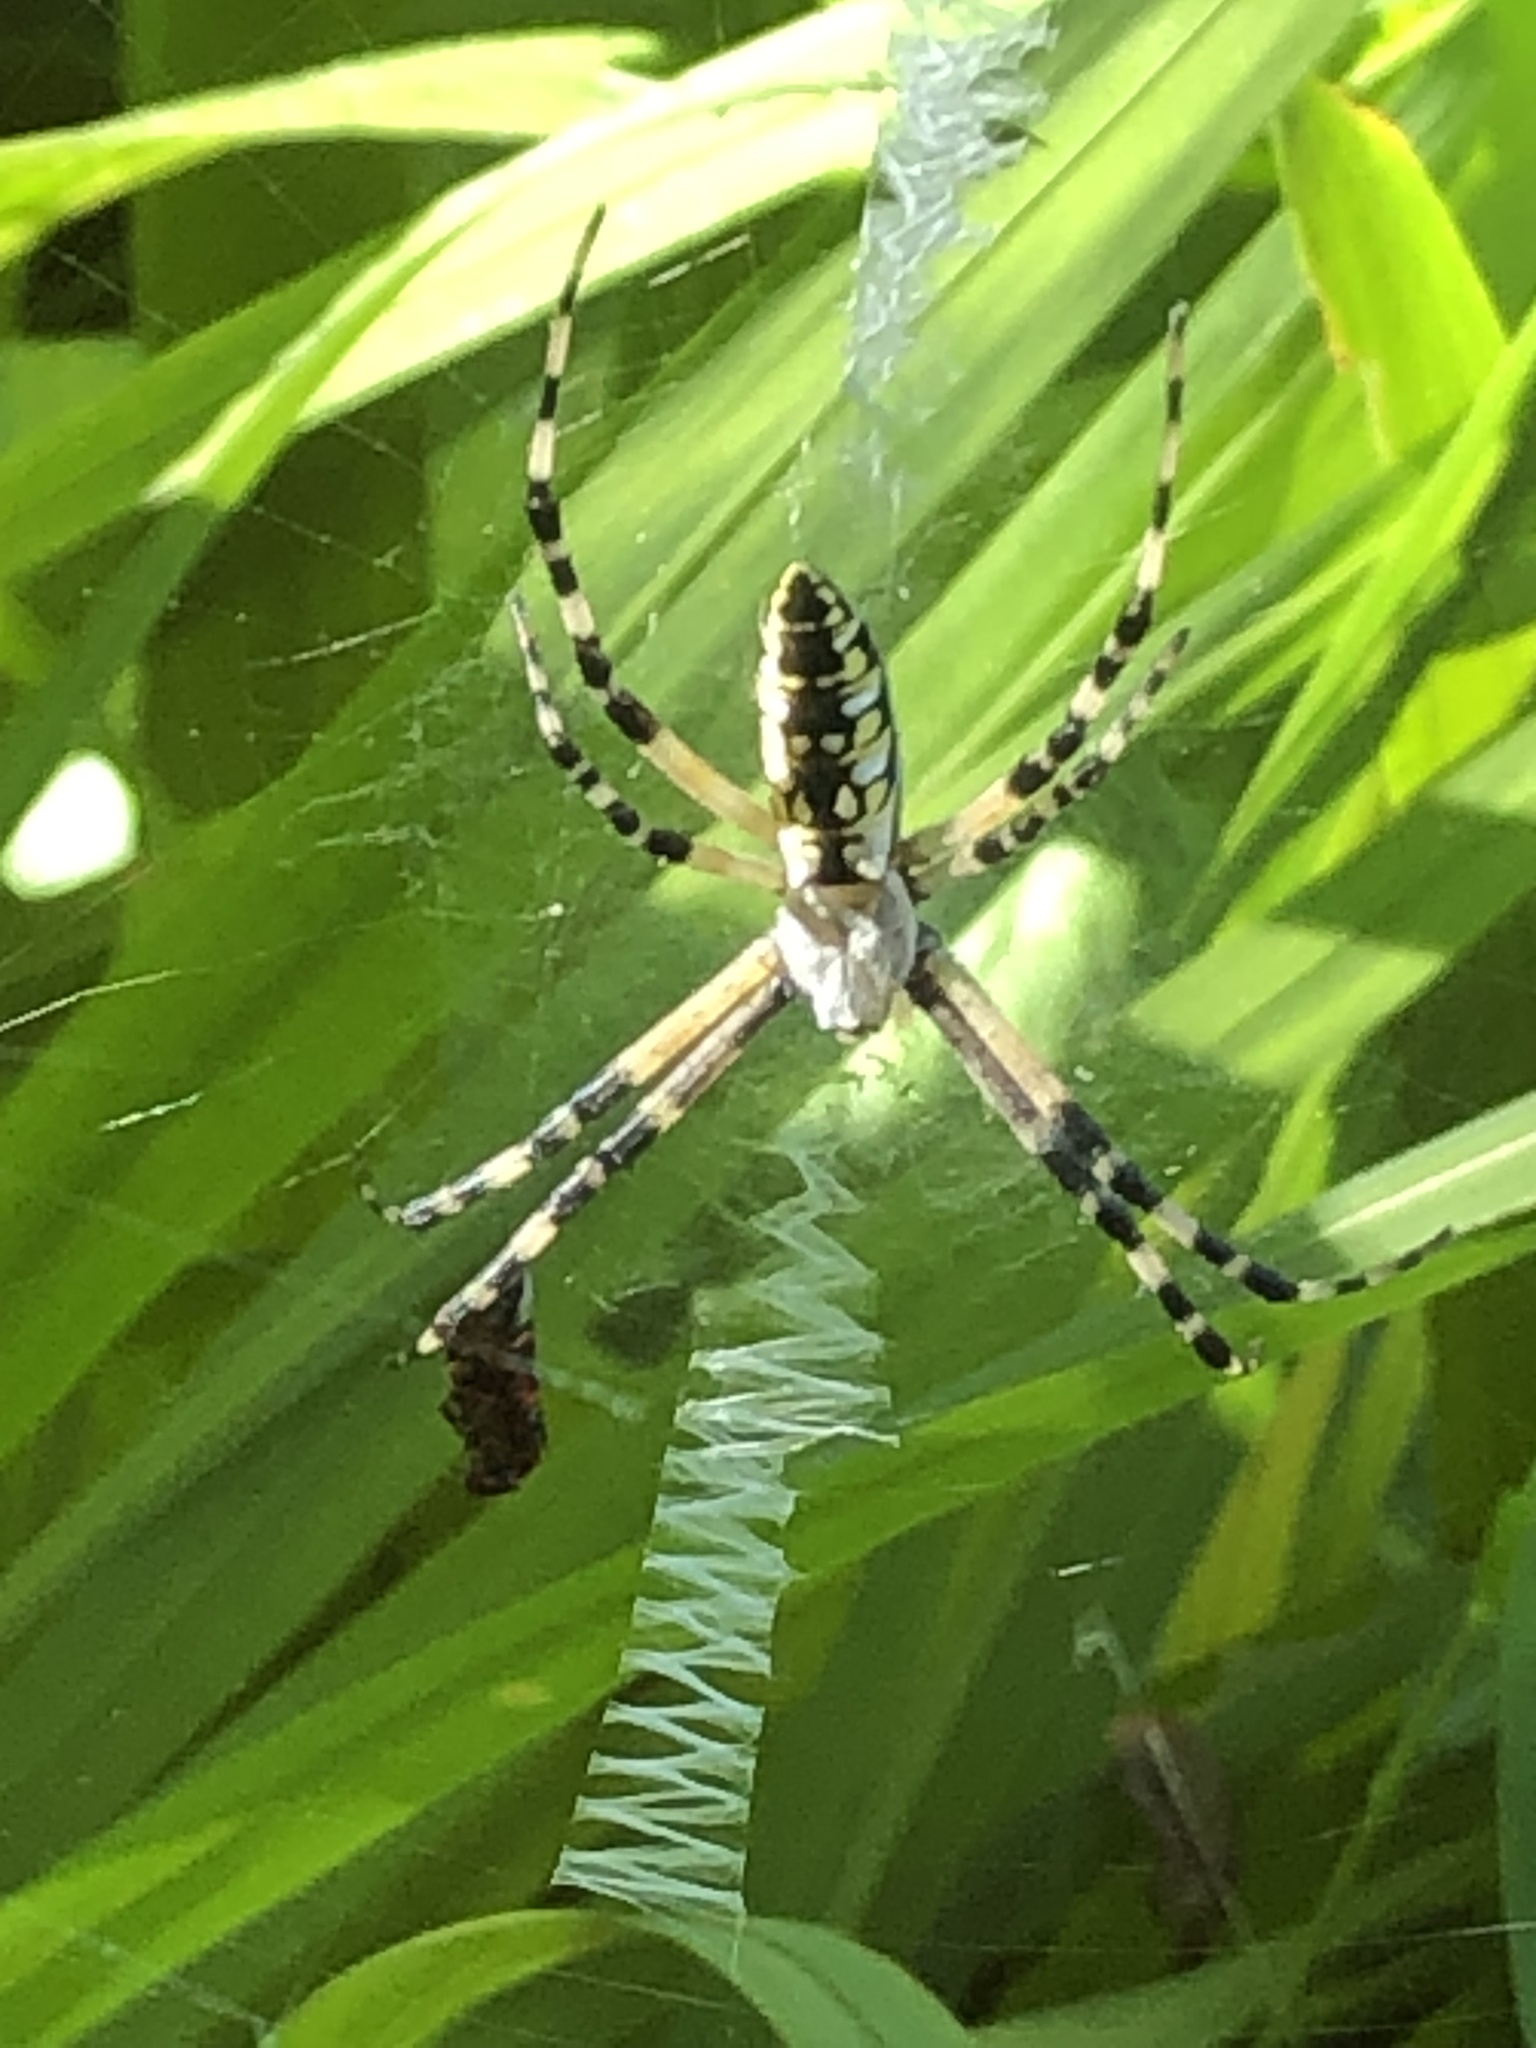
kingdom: Animalia
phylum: Arthropoda
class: Arachnida
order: Araneae
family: Araneidae
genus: Argiope
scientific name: Argiope aurantia
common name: Orb weavers
